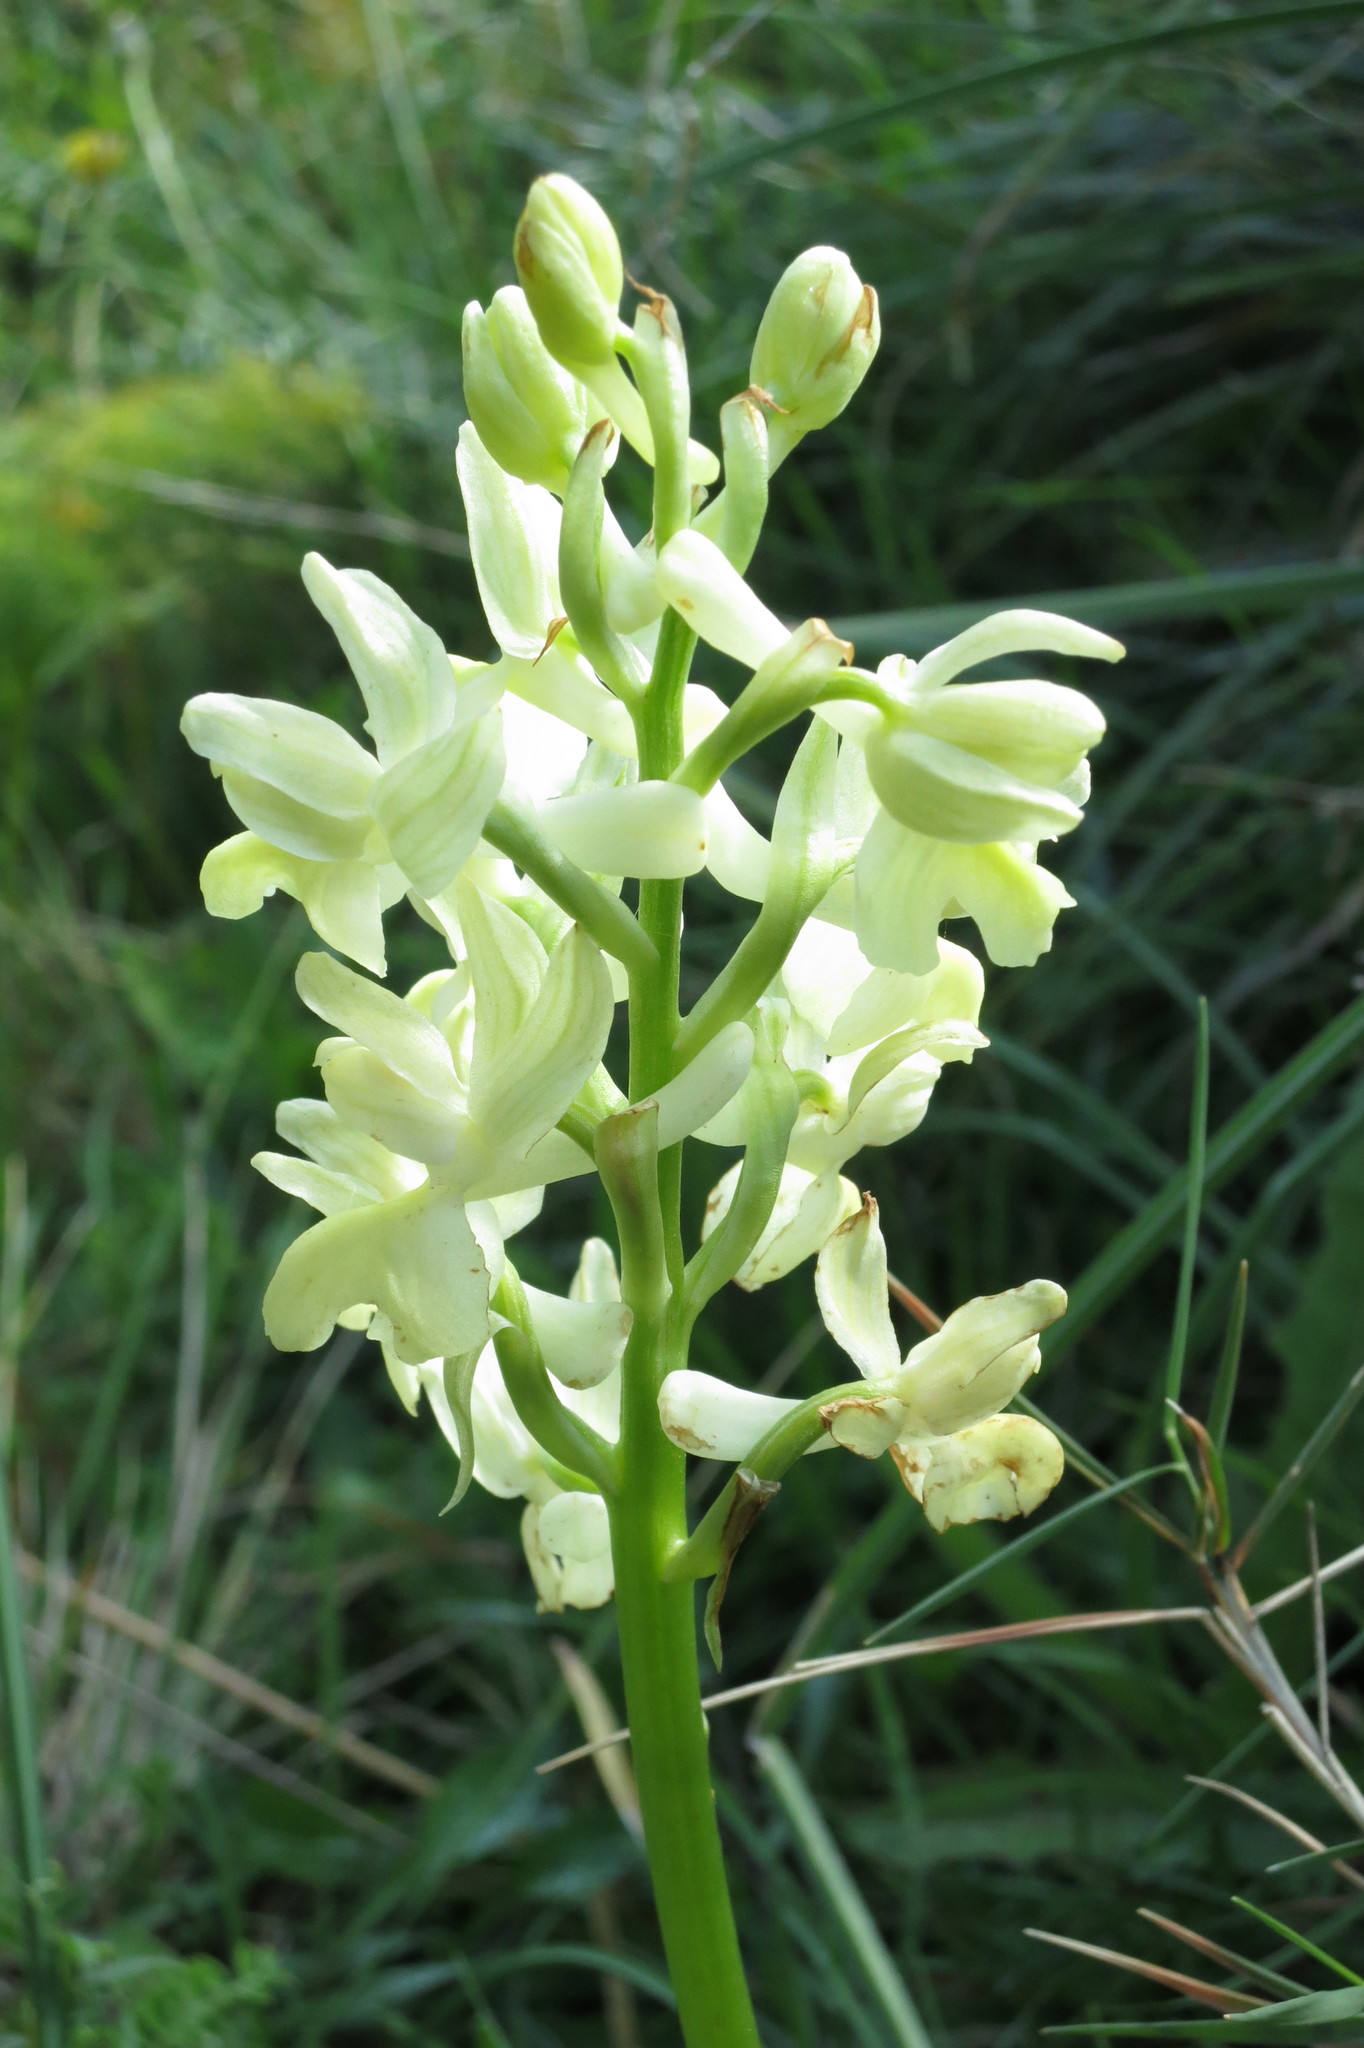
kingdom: Plantae
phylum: Tracheophyta
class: Liliopsida
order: Asparagales
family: Orchidaceae
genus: Orchis
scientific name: Orchis provincialis
